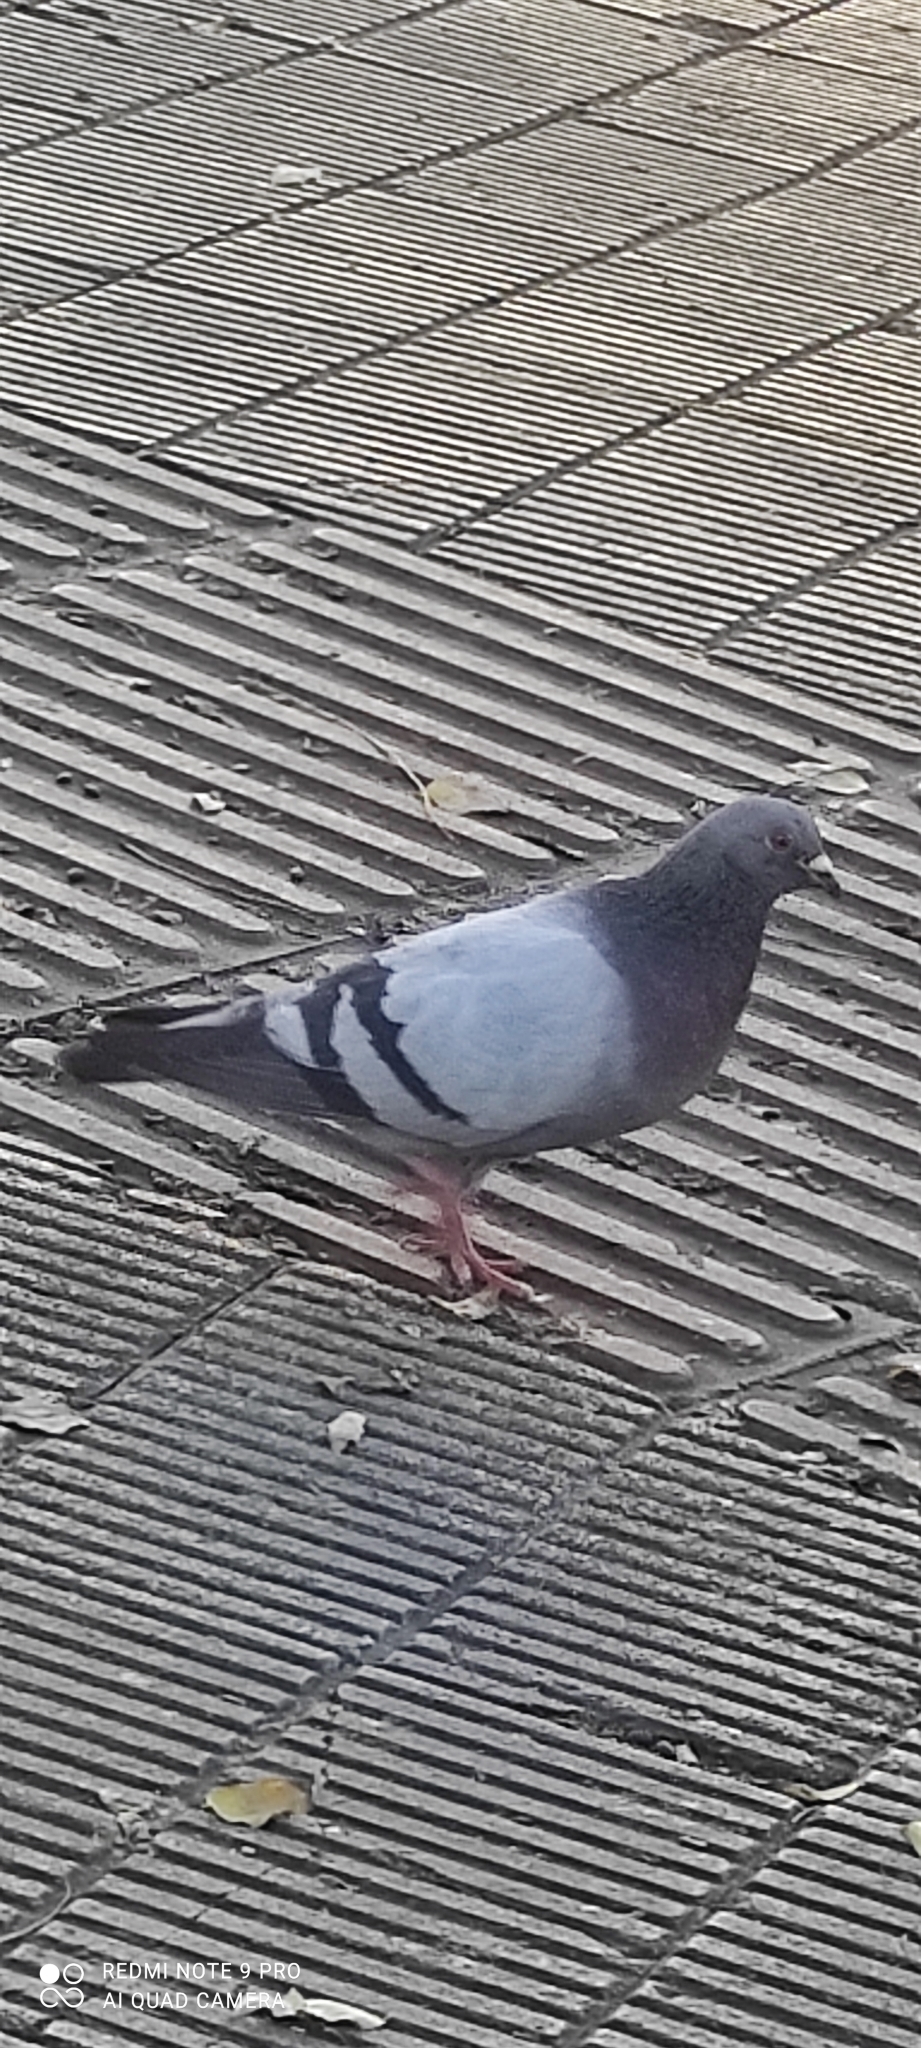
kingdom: Animalia
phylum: Chordata
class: Aves
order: Columbiformes
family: Columbidae
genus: Columba
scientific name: Columba livia
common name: Rock pigeon
